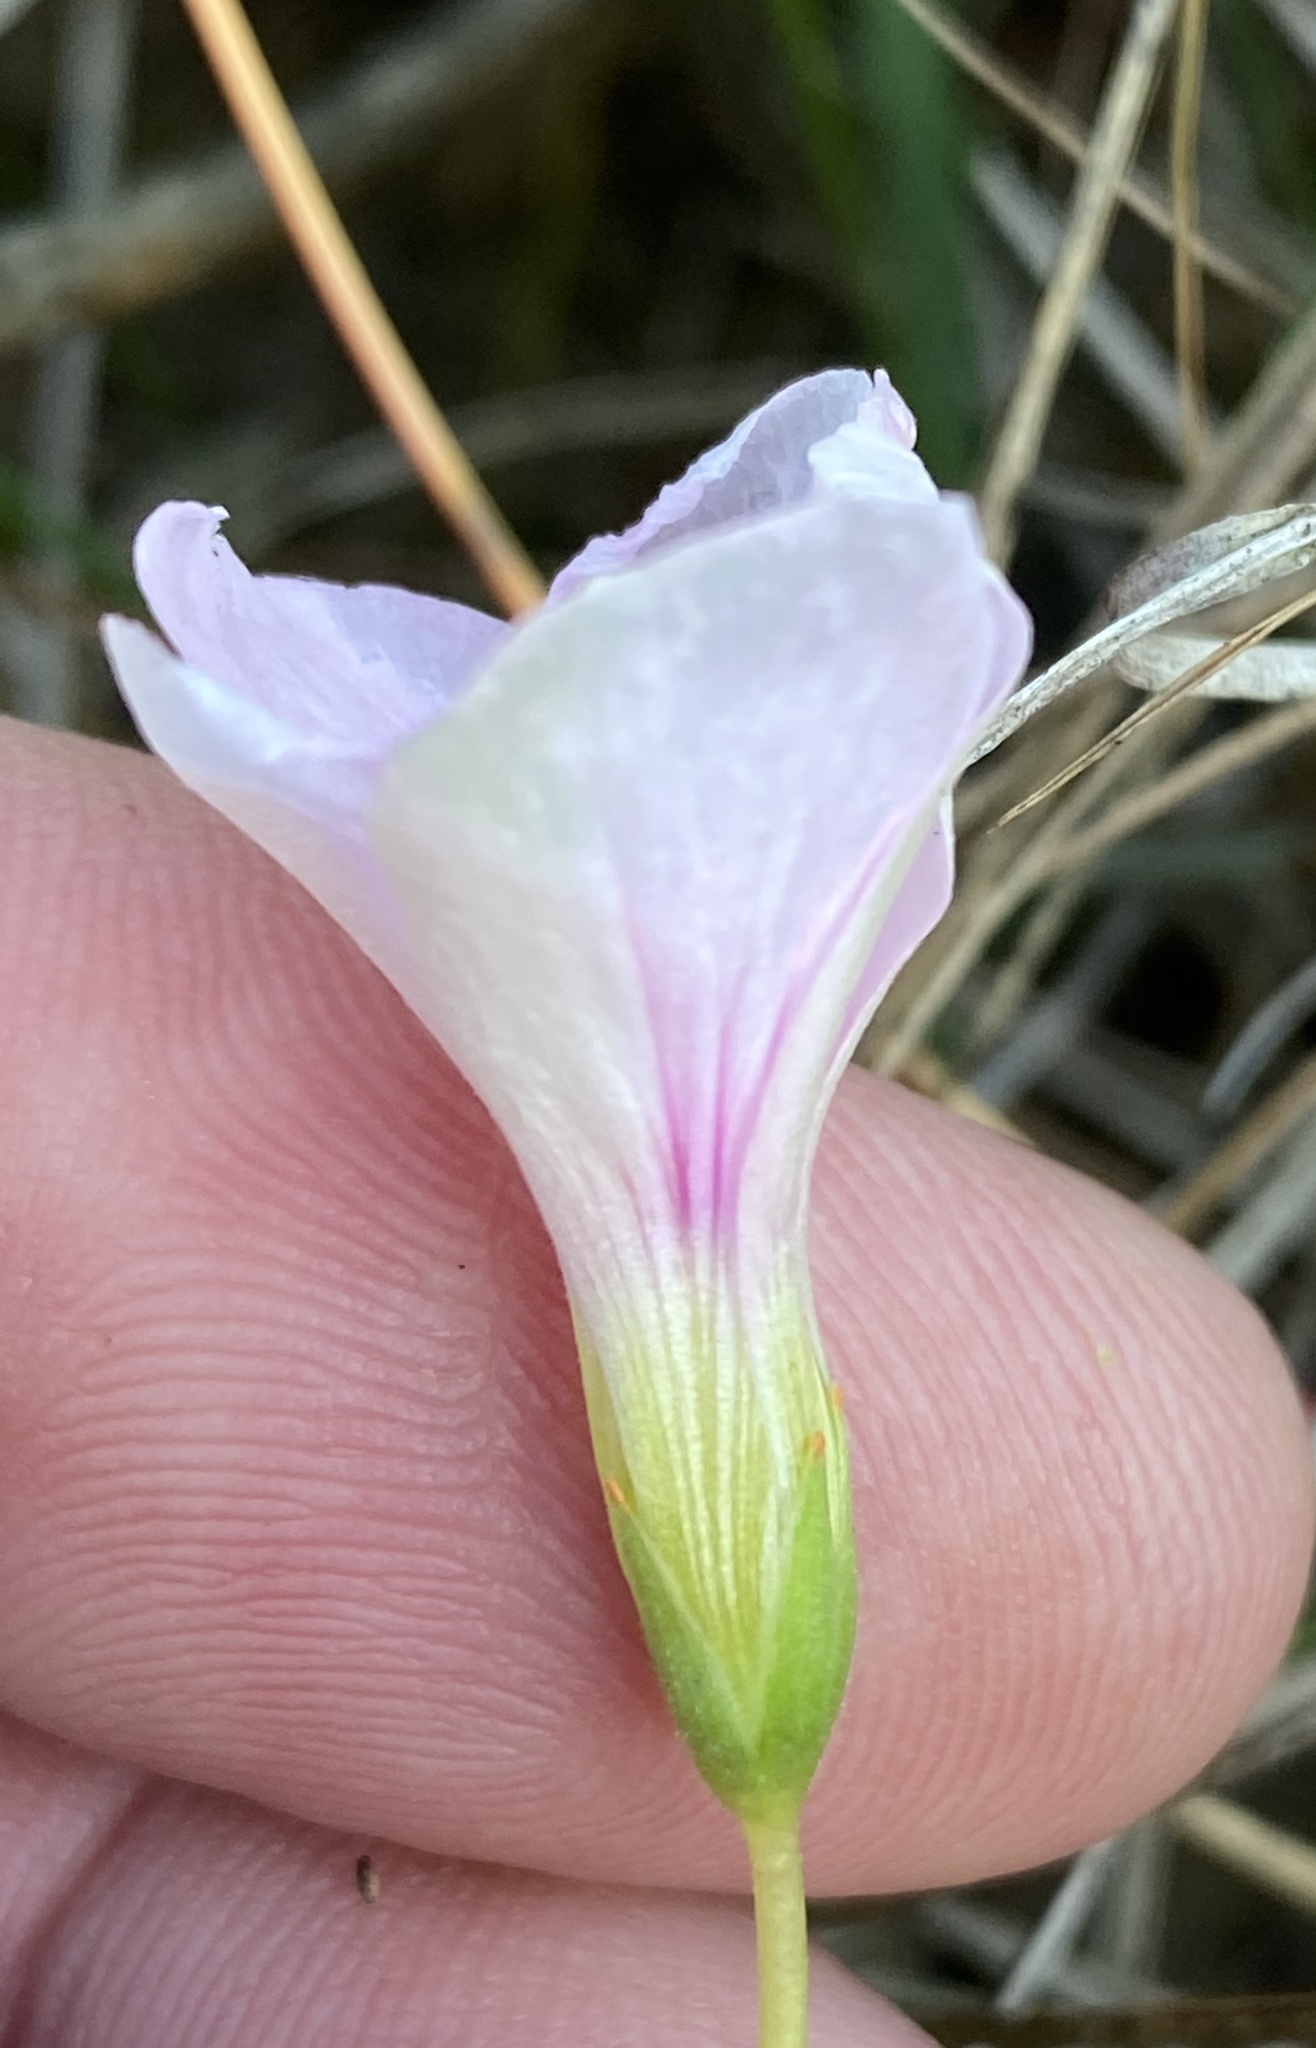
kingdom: Plantae
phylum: Tracheophyta
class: Magnoliopsida
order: Oxalidales
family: Oxalidaceae
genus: Oxalis
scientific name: Oxalis smithiana
